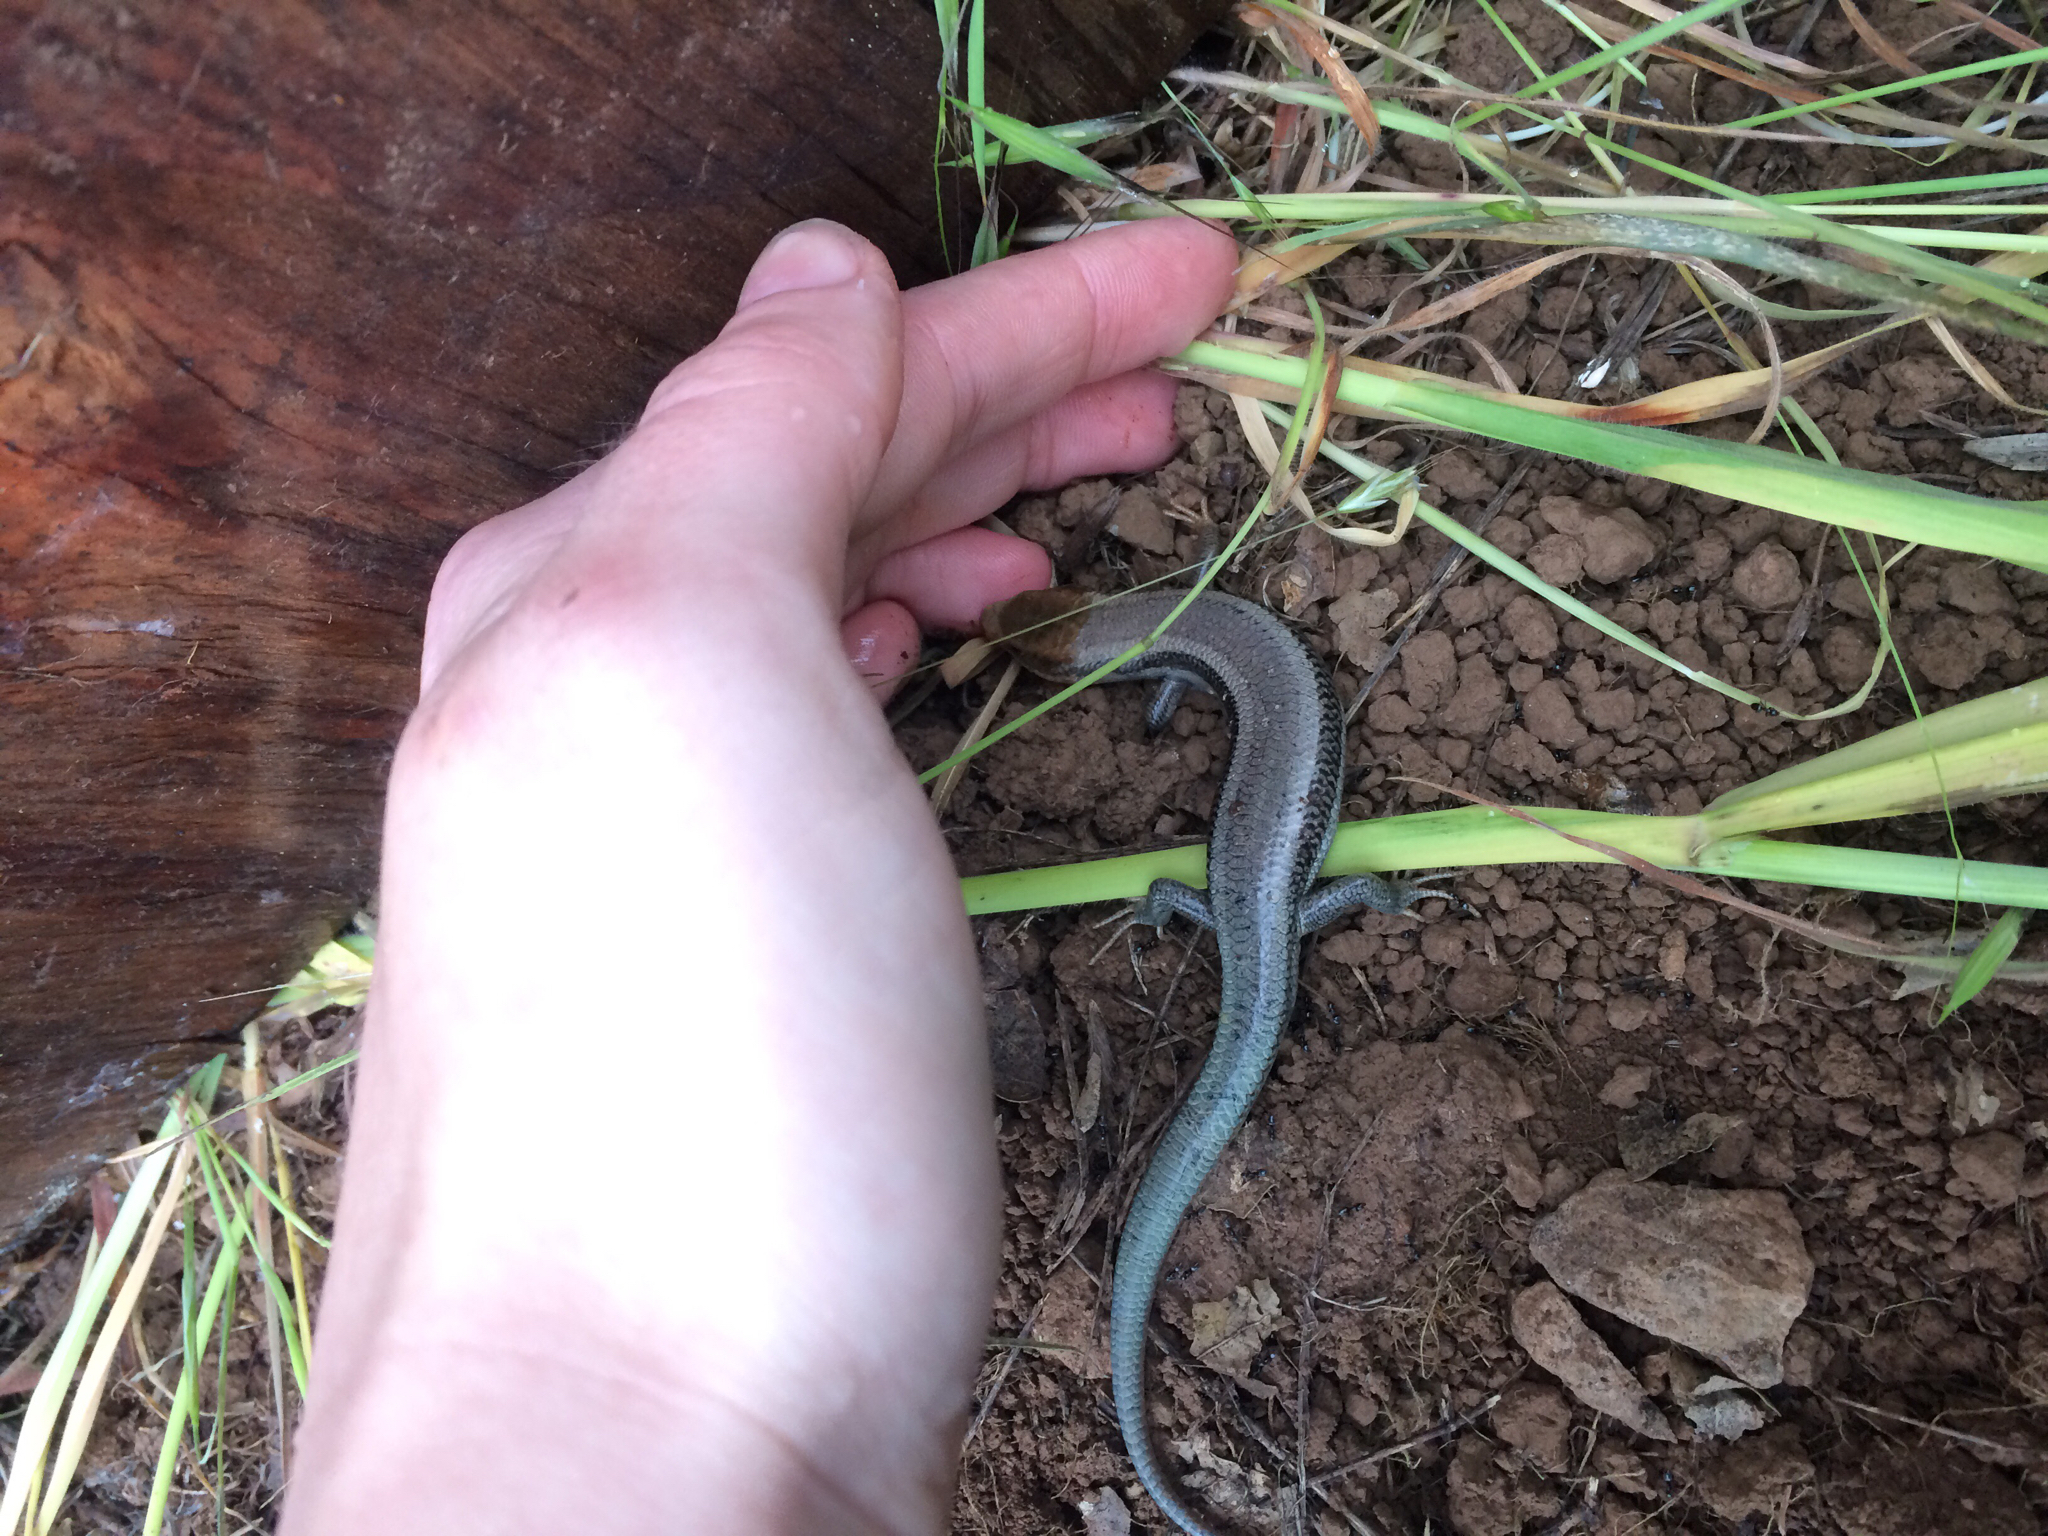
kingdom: Animalia
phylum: Chordata
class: Squamata
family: Scincidae
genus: Plestiodon
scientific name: Plestiodon skiltonianus
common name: Coronado island skink [interparietalis]
